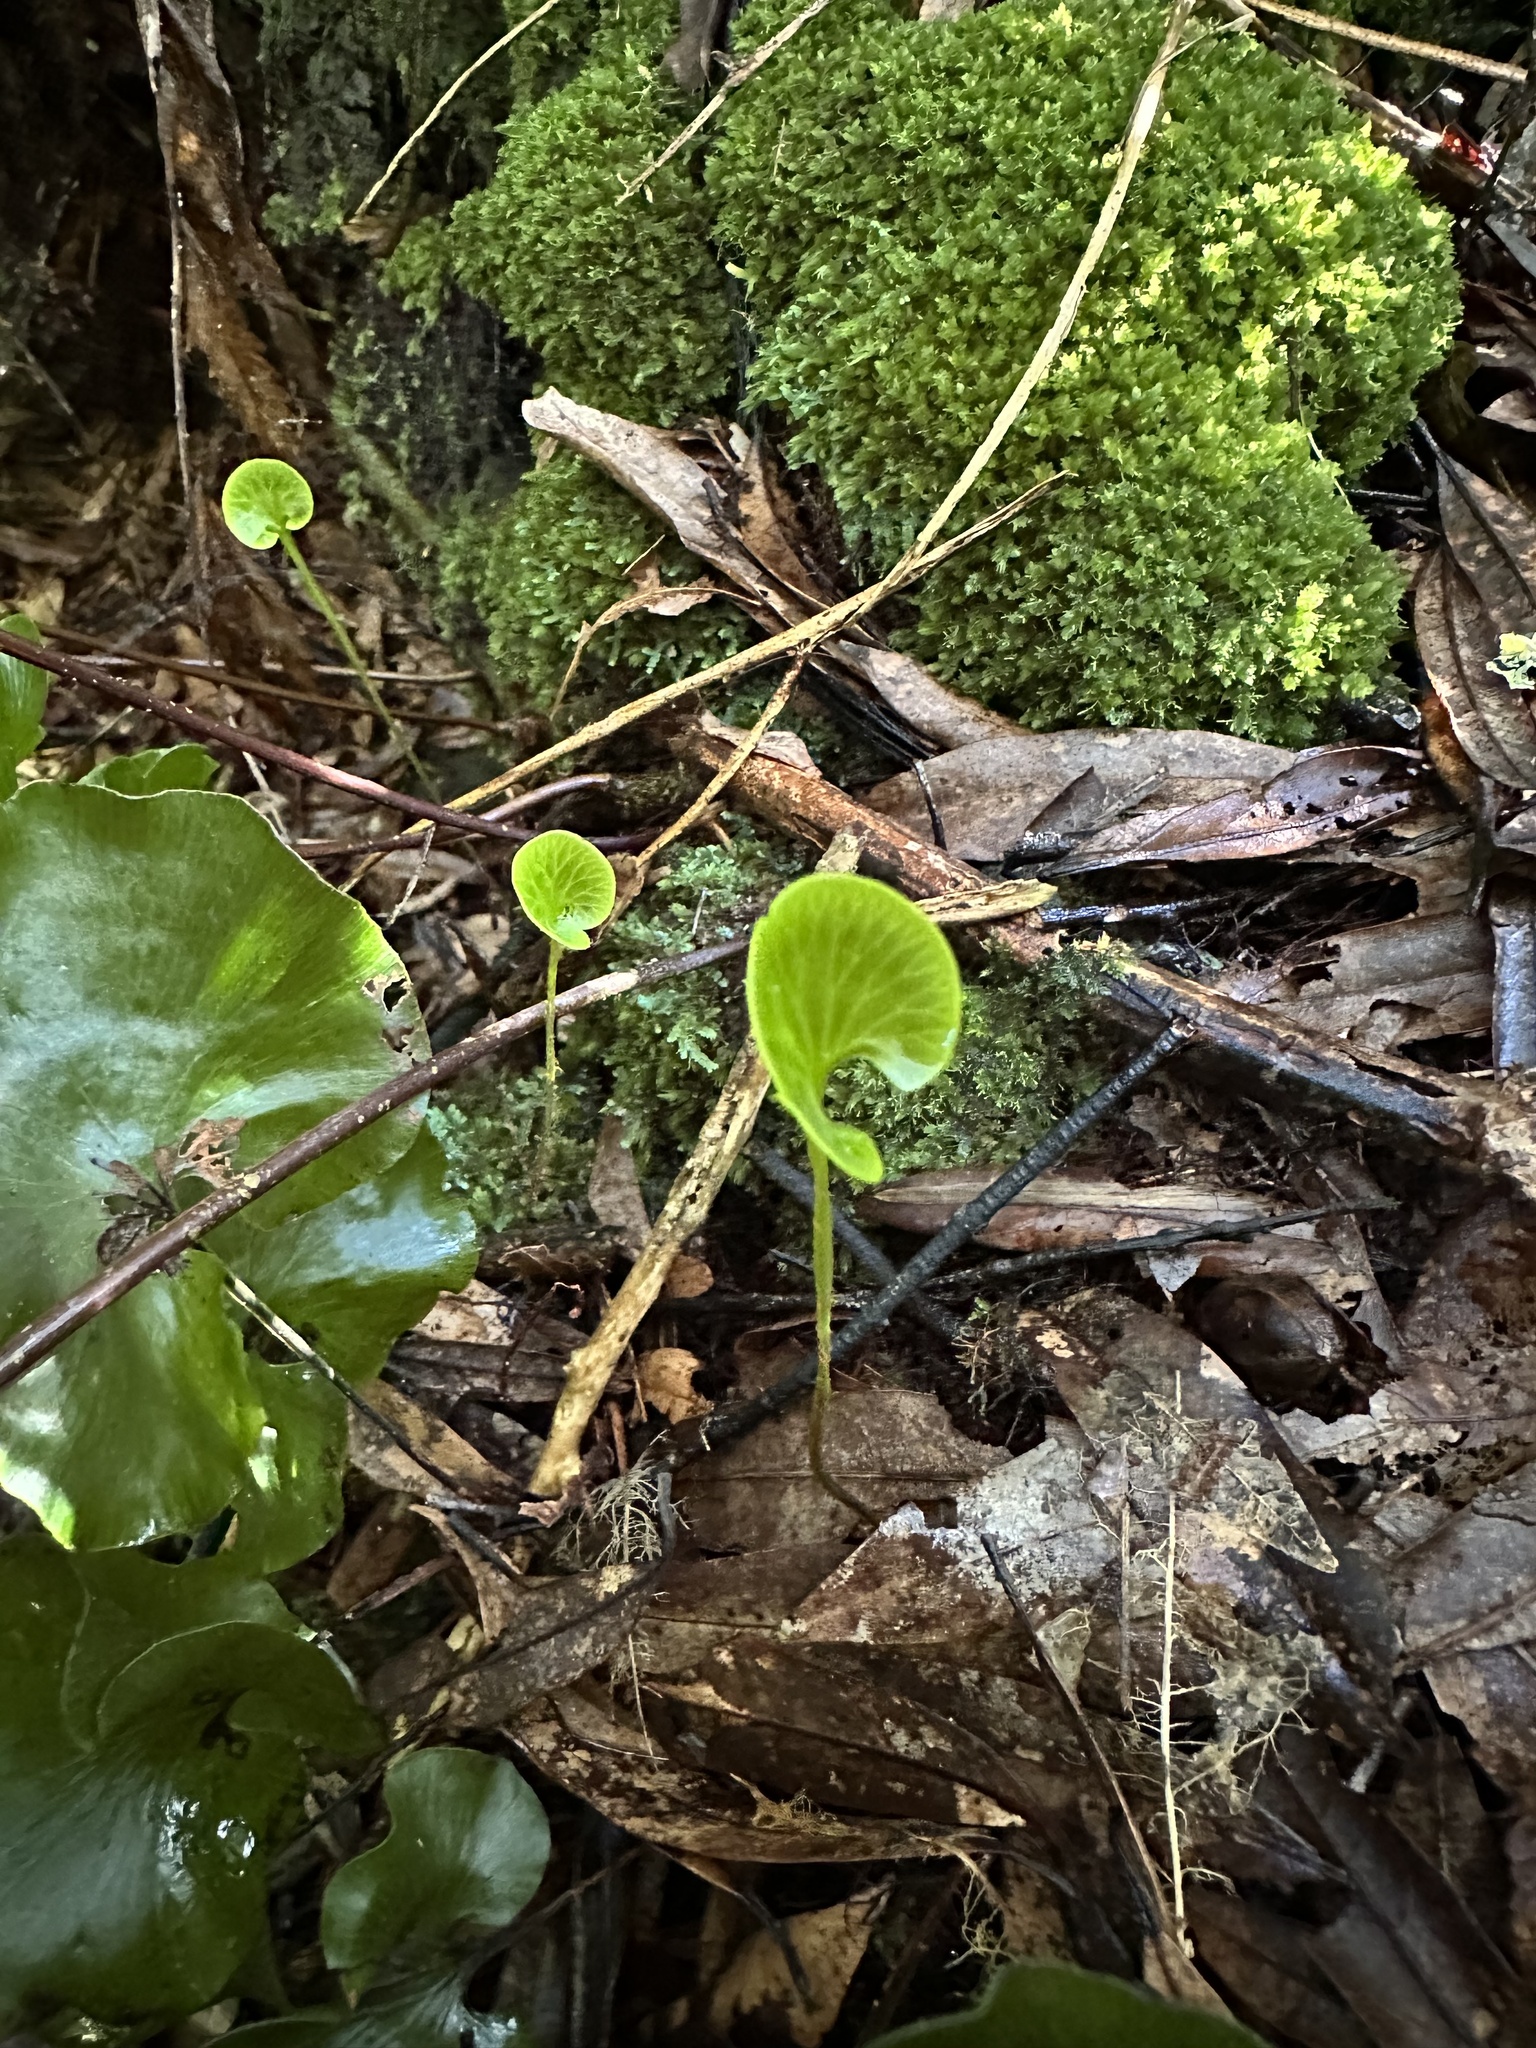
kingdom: Plantae
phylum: Tracheophyta
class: Polypodiopsida
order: Hymenophyllales
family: Hymenophyllaceae
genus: Hymenophyllum
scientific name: Hymenophyllum nephrophyllum
